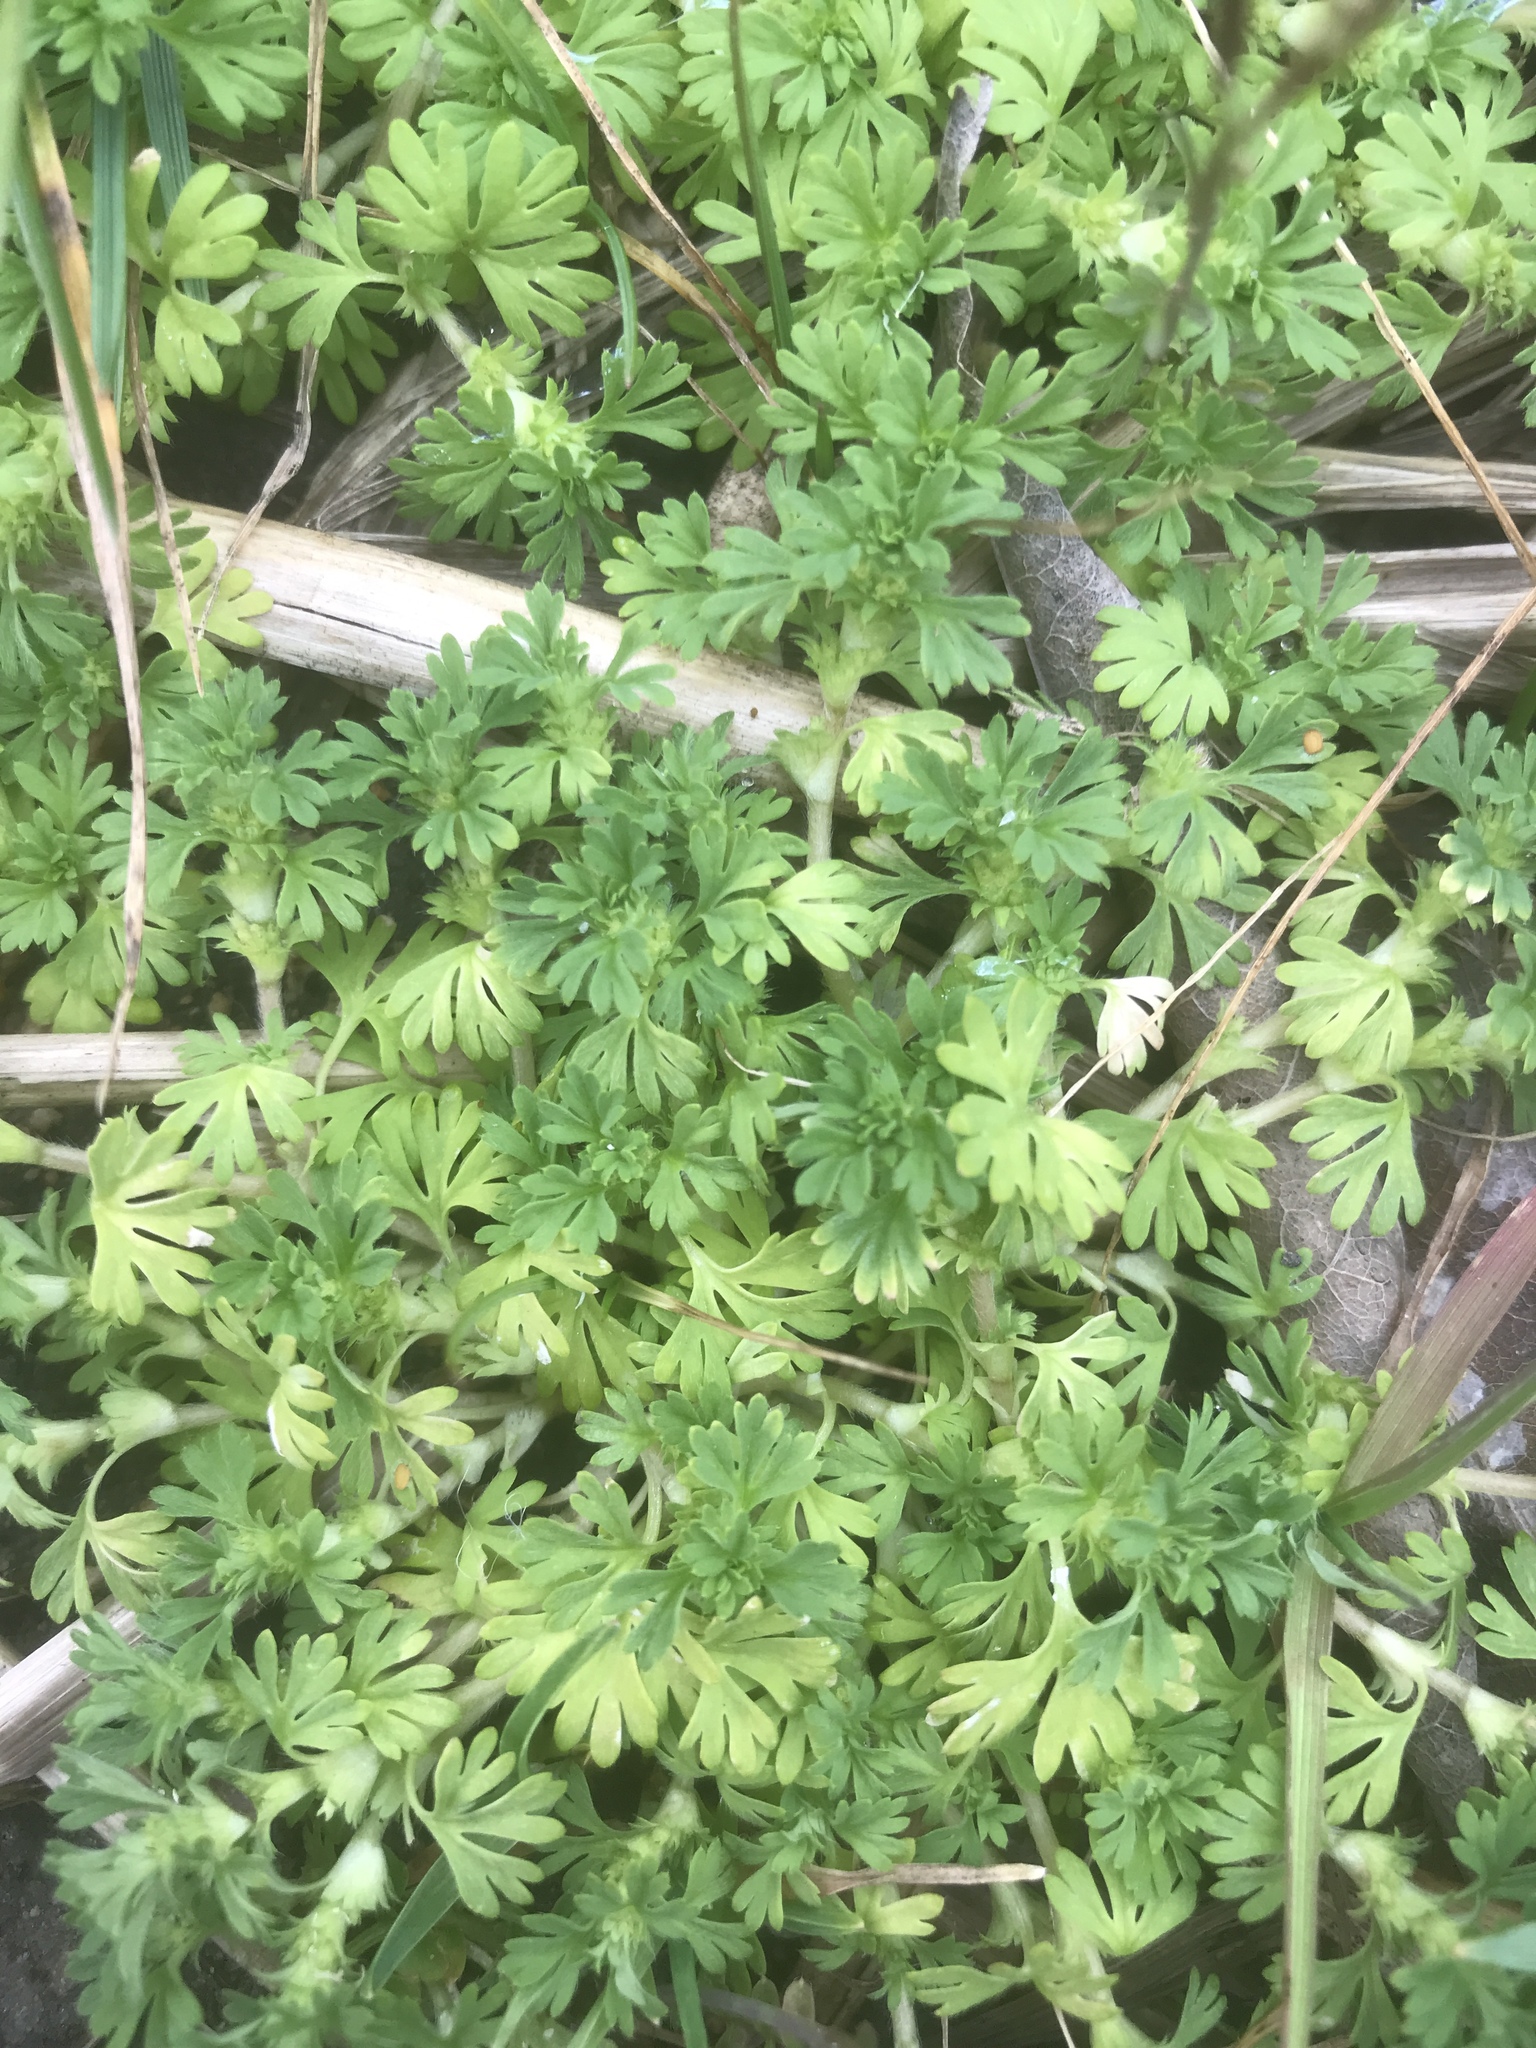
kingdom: Plantae
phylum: Tracheophyta
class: Magnoliopsida
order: Rosales
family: Rosaceae
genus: Aphanes
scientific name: Aphanes australis
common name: Slender parsley-piert
